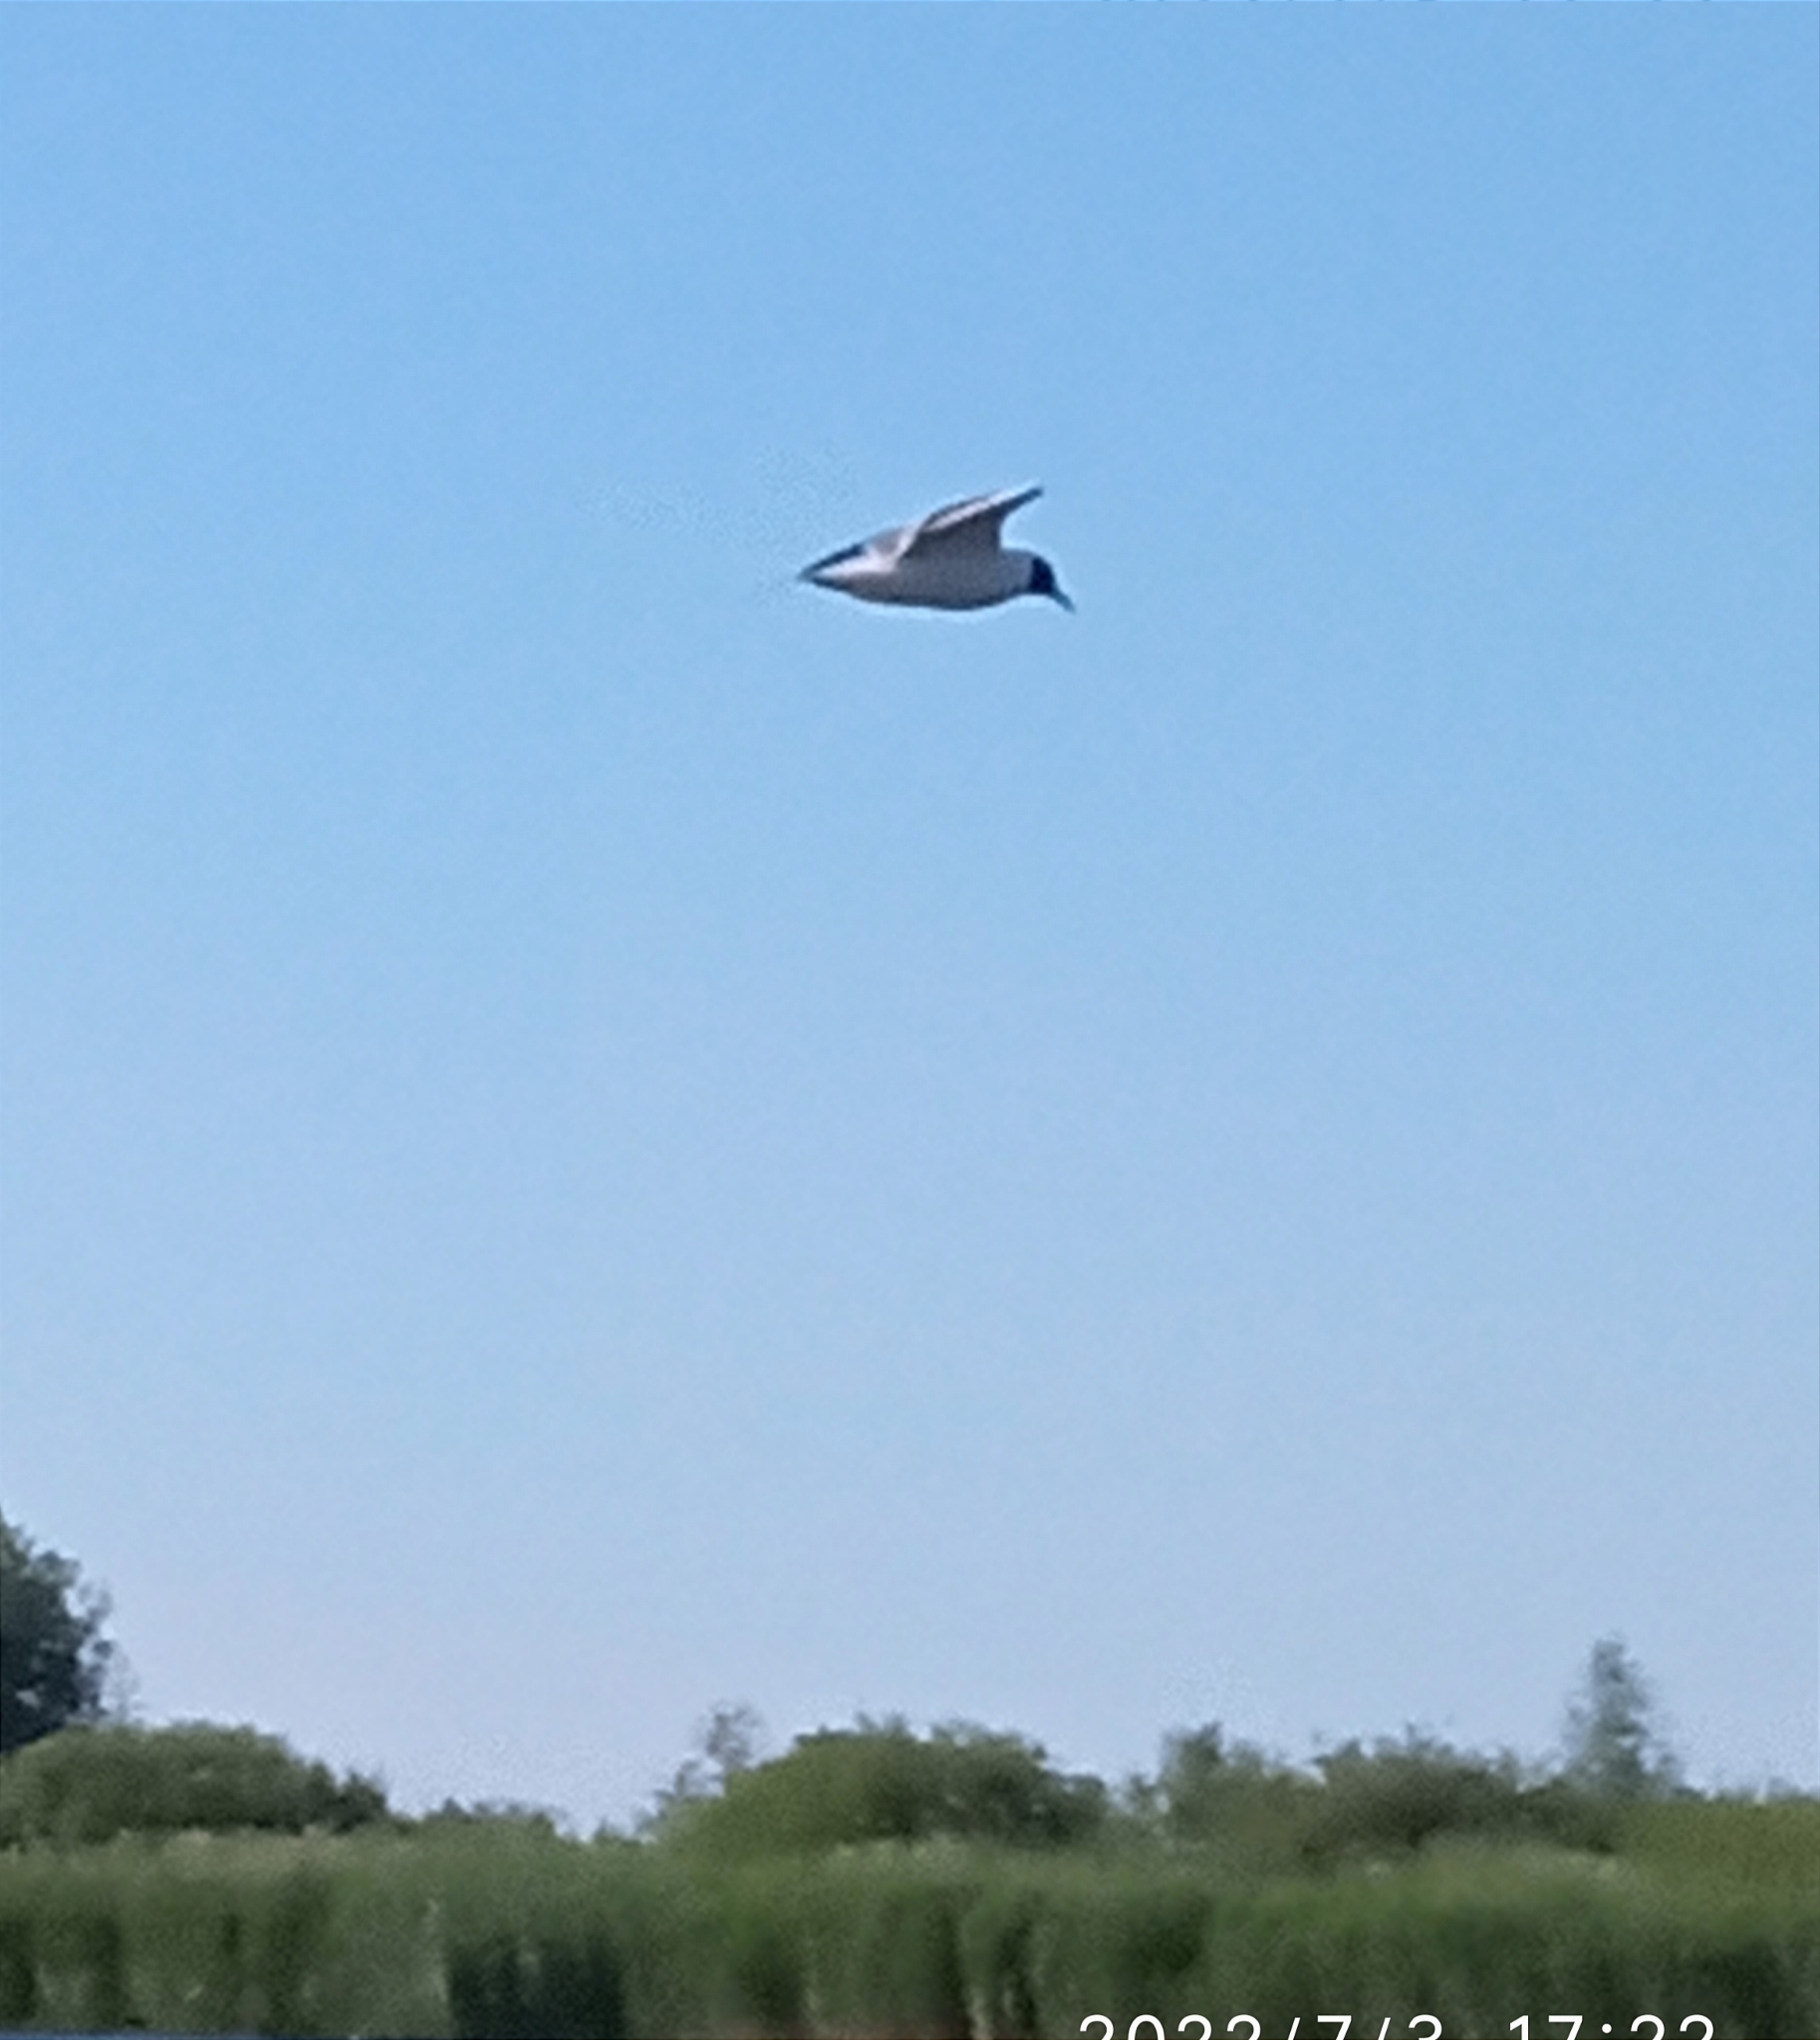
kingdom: Animalia
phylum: Chordata
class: Aves
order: Charadriiformes
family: Laridae
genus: Chroicocephalus
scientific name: Chroicocephalus ridibundus
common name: Black-headed gull
